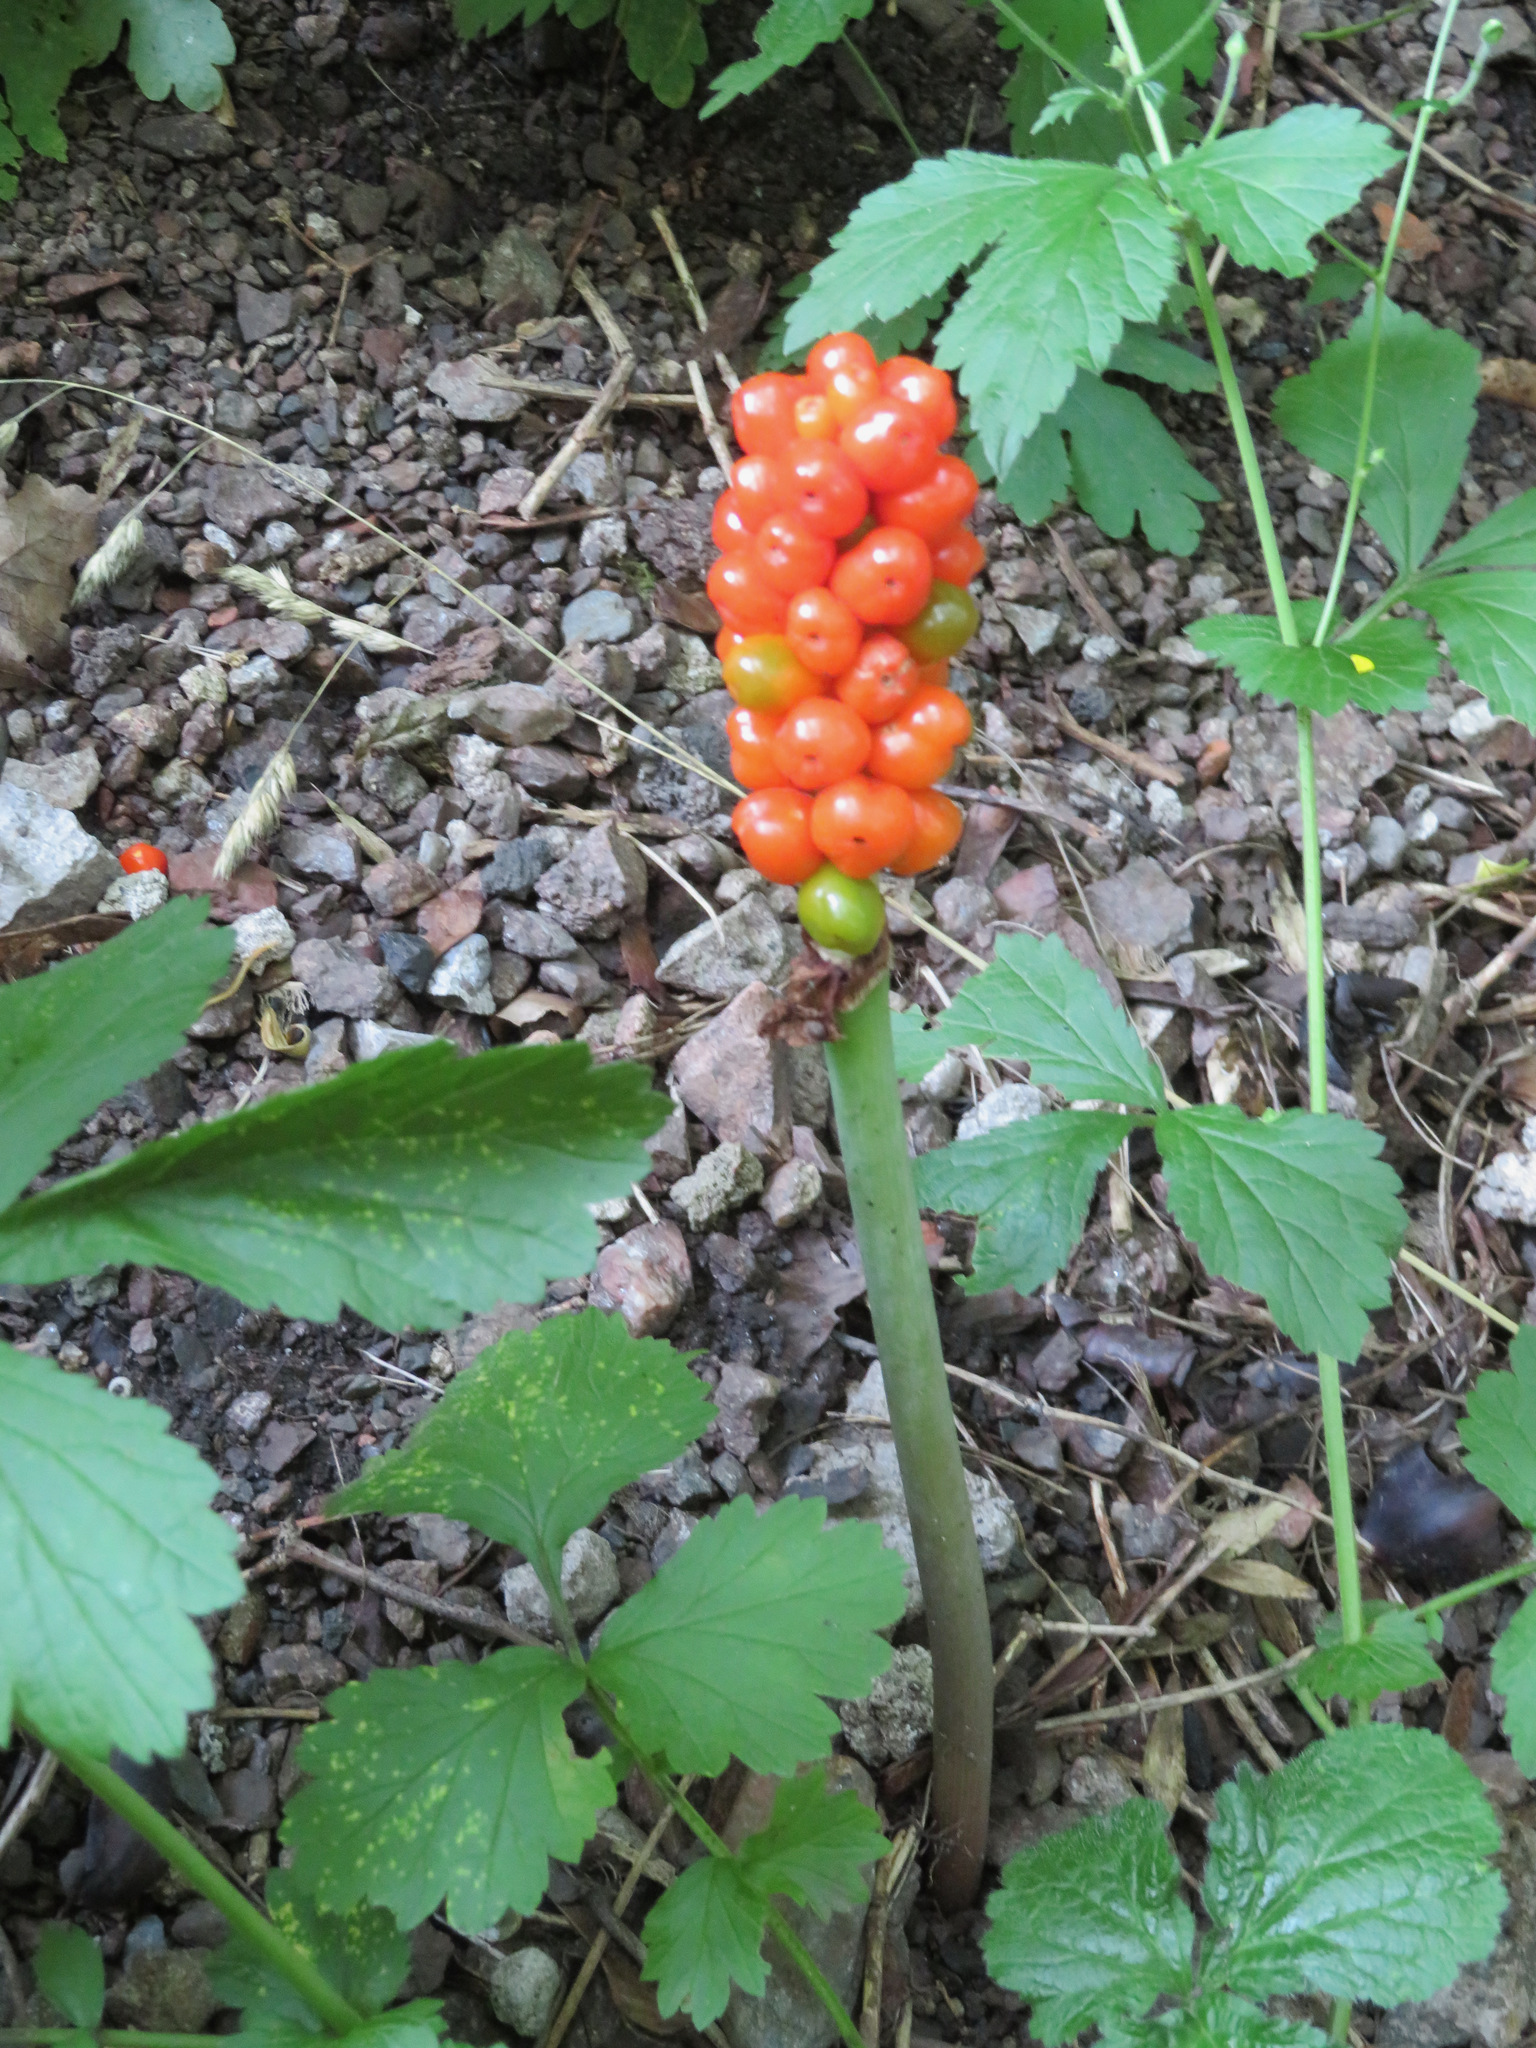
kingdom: Plantae
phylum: Tracheophyta
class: Liliopsida
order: Alismatales
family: Araceae
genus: Arum
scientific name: Arum maculatum
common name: Lords-and-ladies
